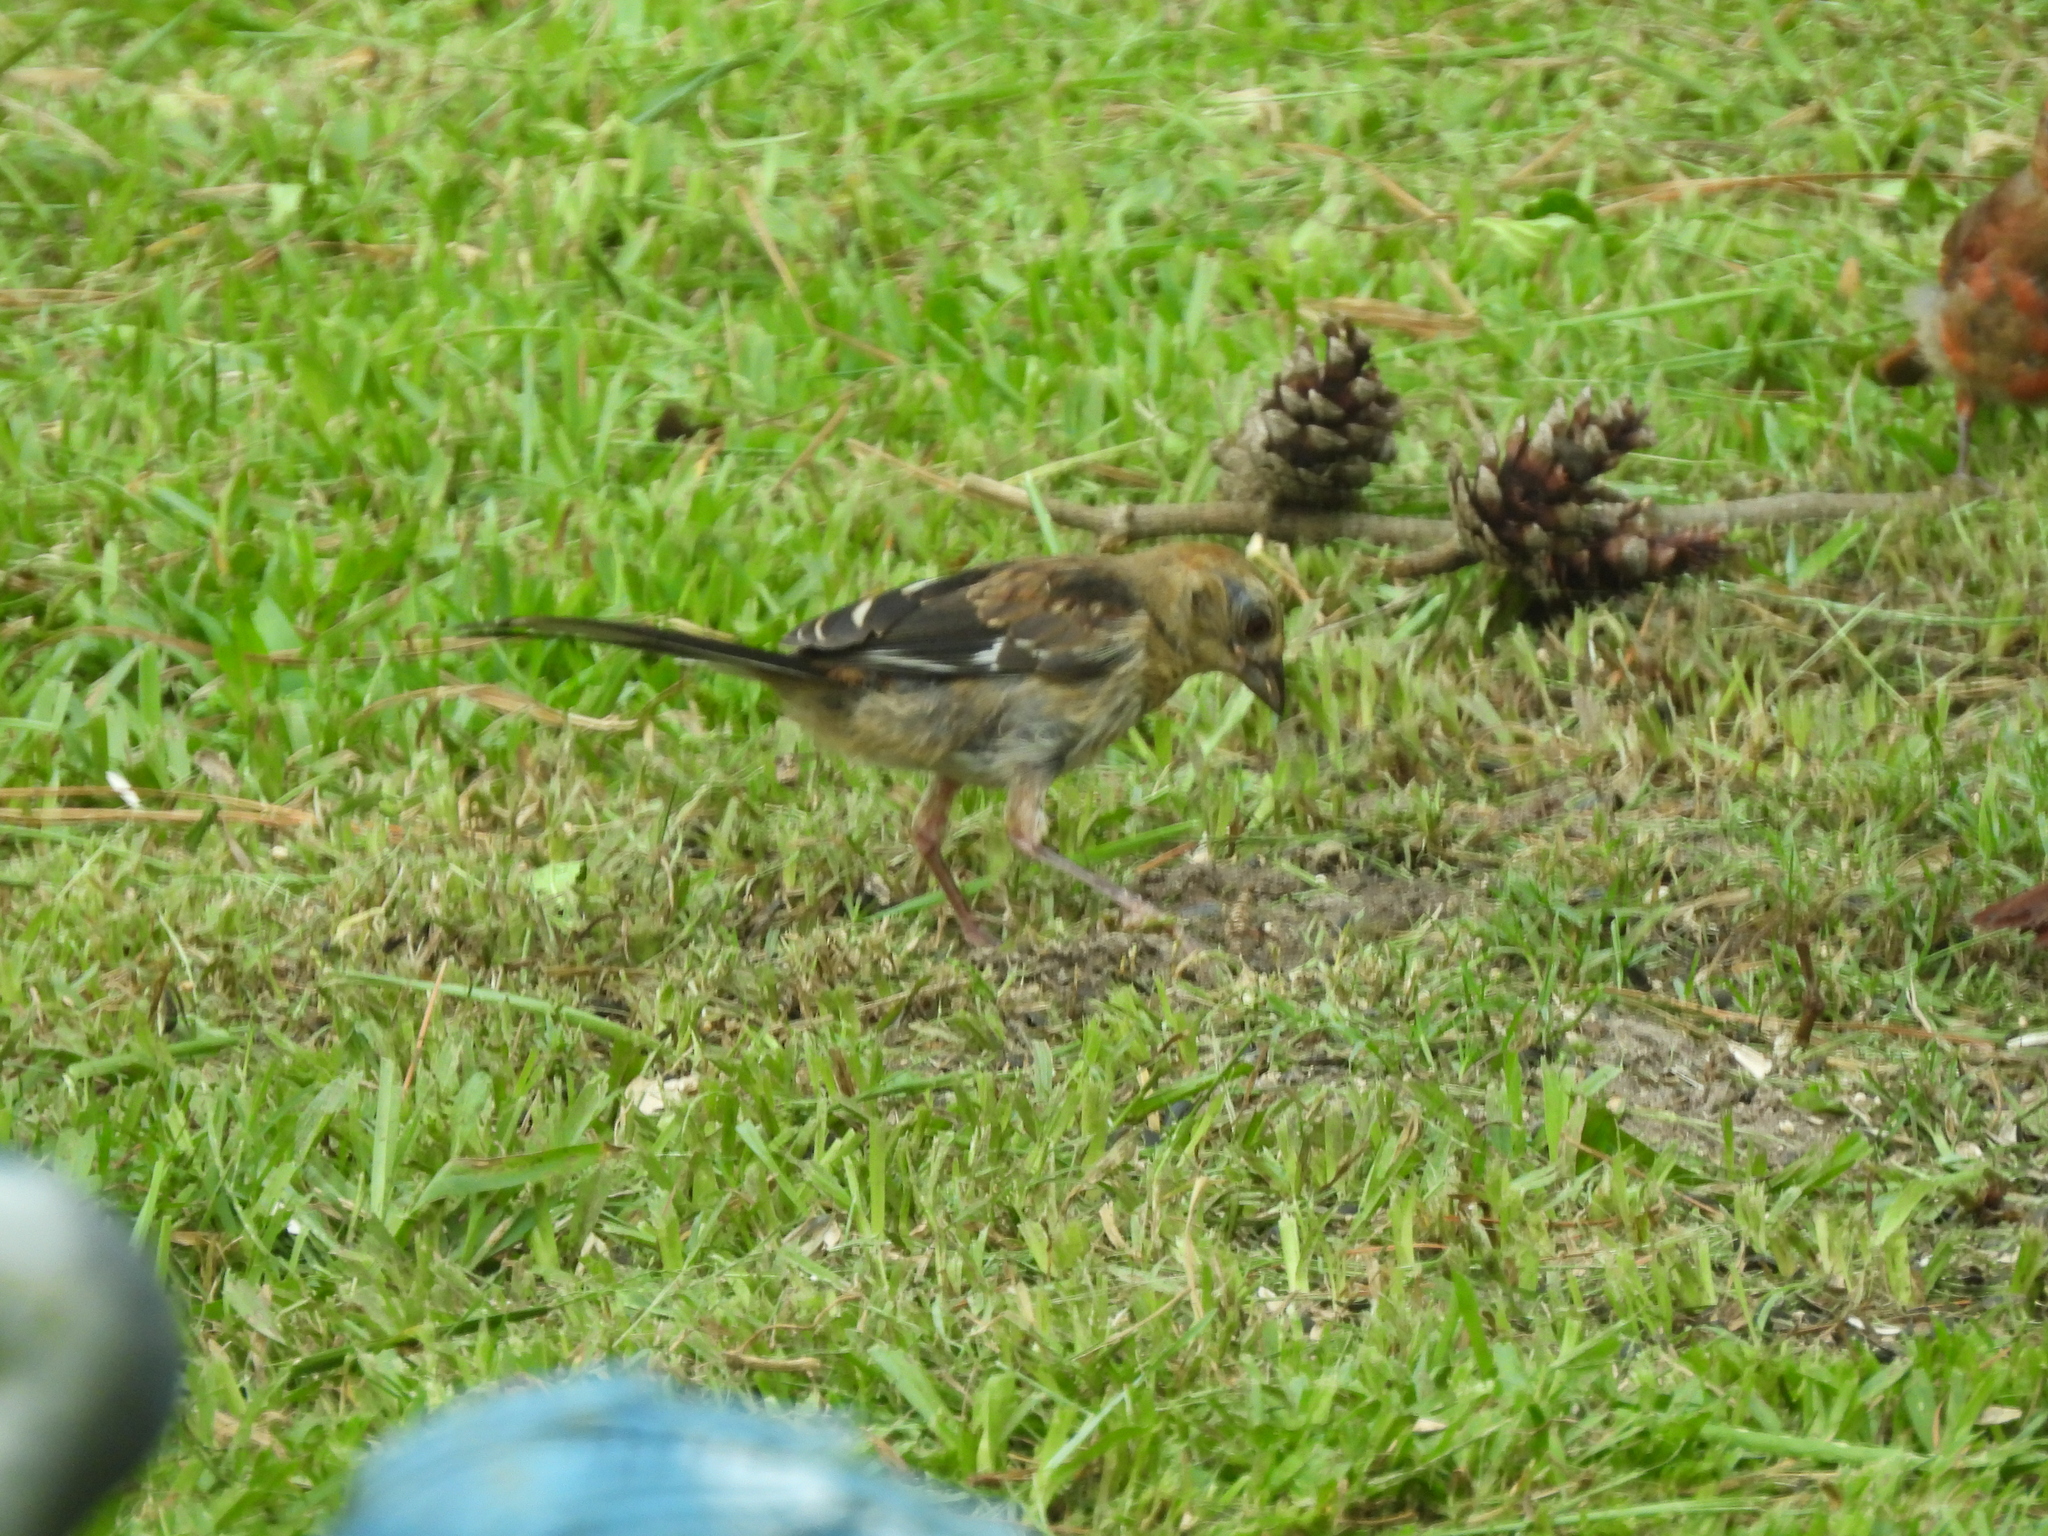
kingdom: Animalia
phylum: Chordata
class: Aves
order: Passeriformes
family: Passerellidae
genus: Pipilo
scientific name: Pipilo erythrophthalmus
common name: Eastern towhee
